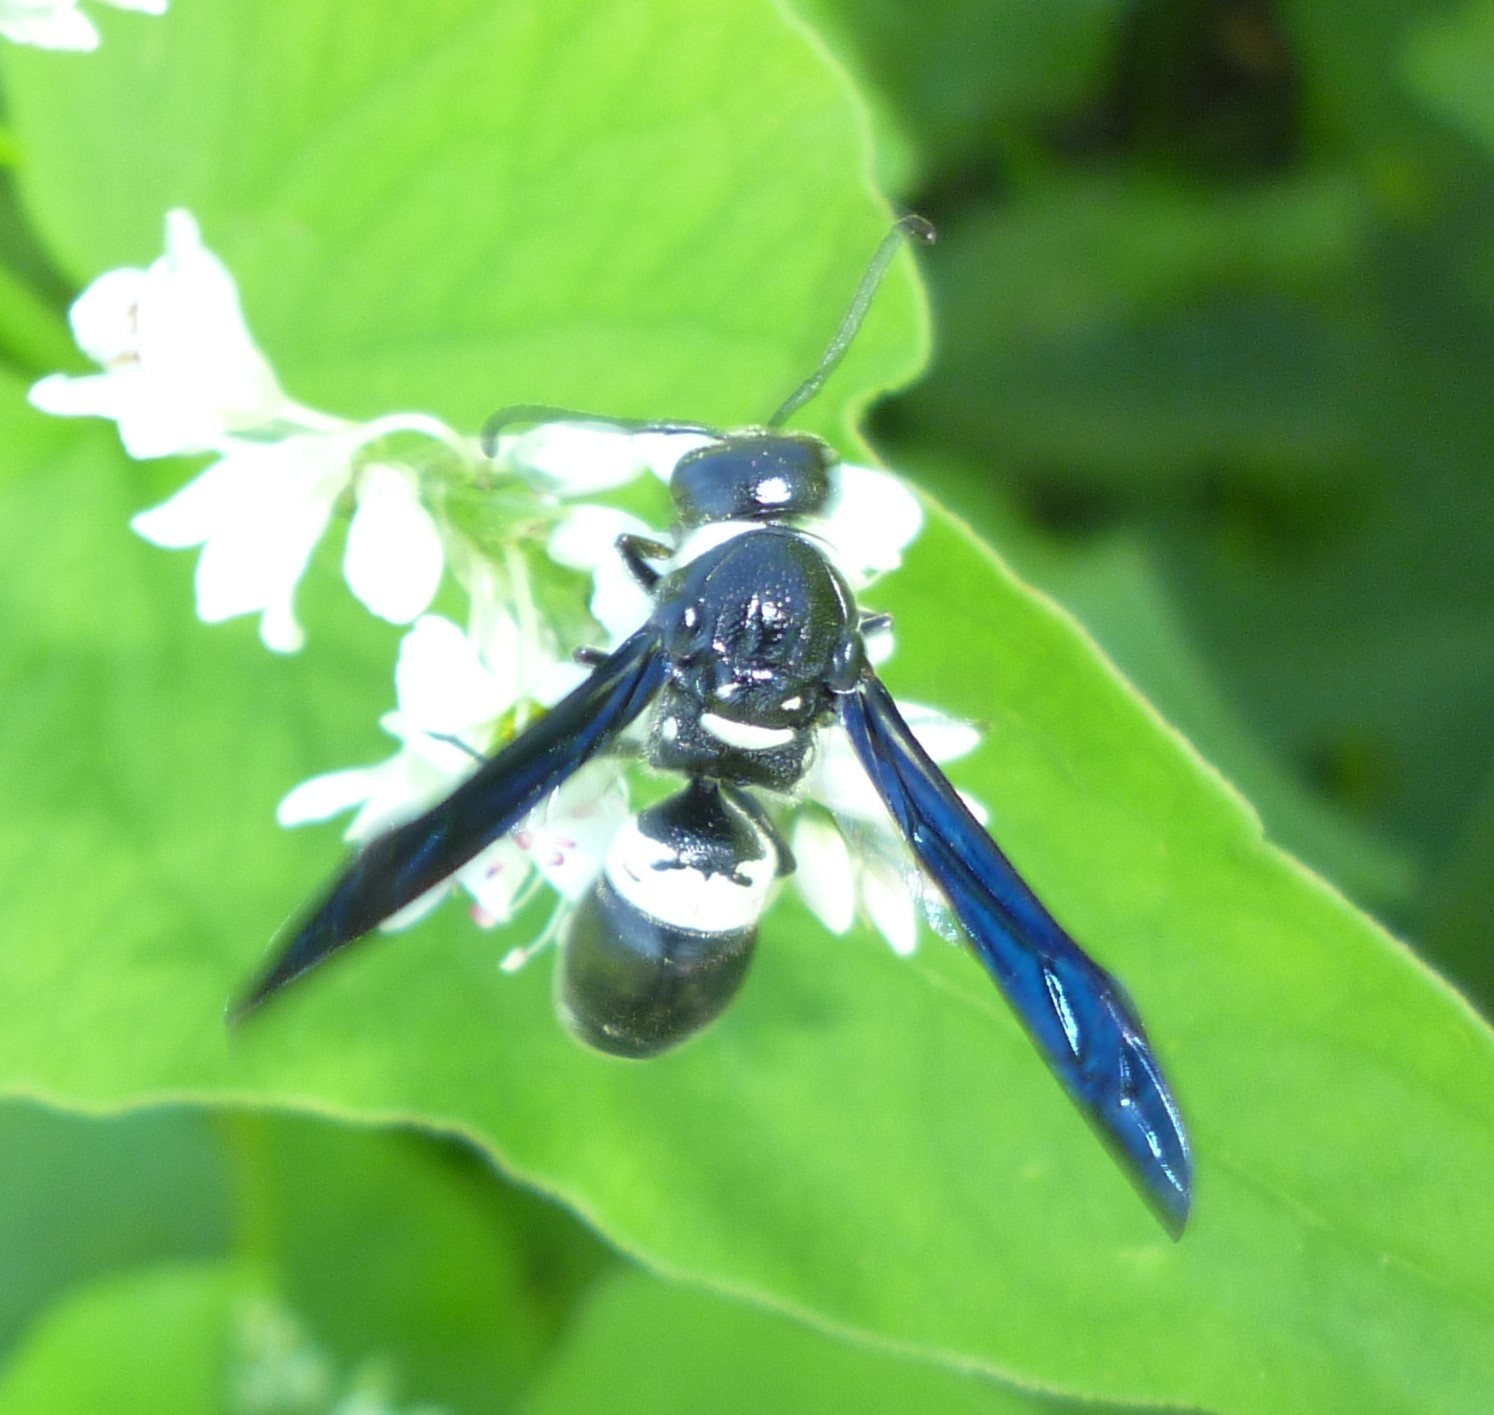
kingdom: Animalia
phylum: Arthropoda
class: Insecta
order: Hymenoptera
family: Eumenidae
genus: Monobia
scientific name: Monobia quadridens
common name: Four-toothed mason wasp
